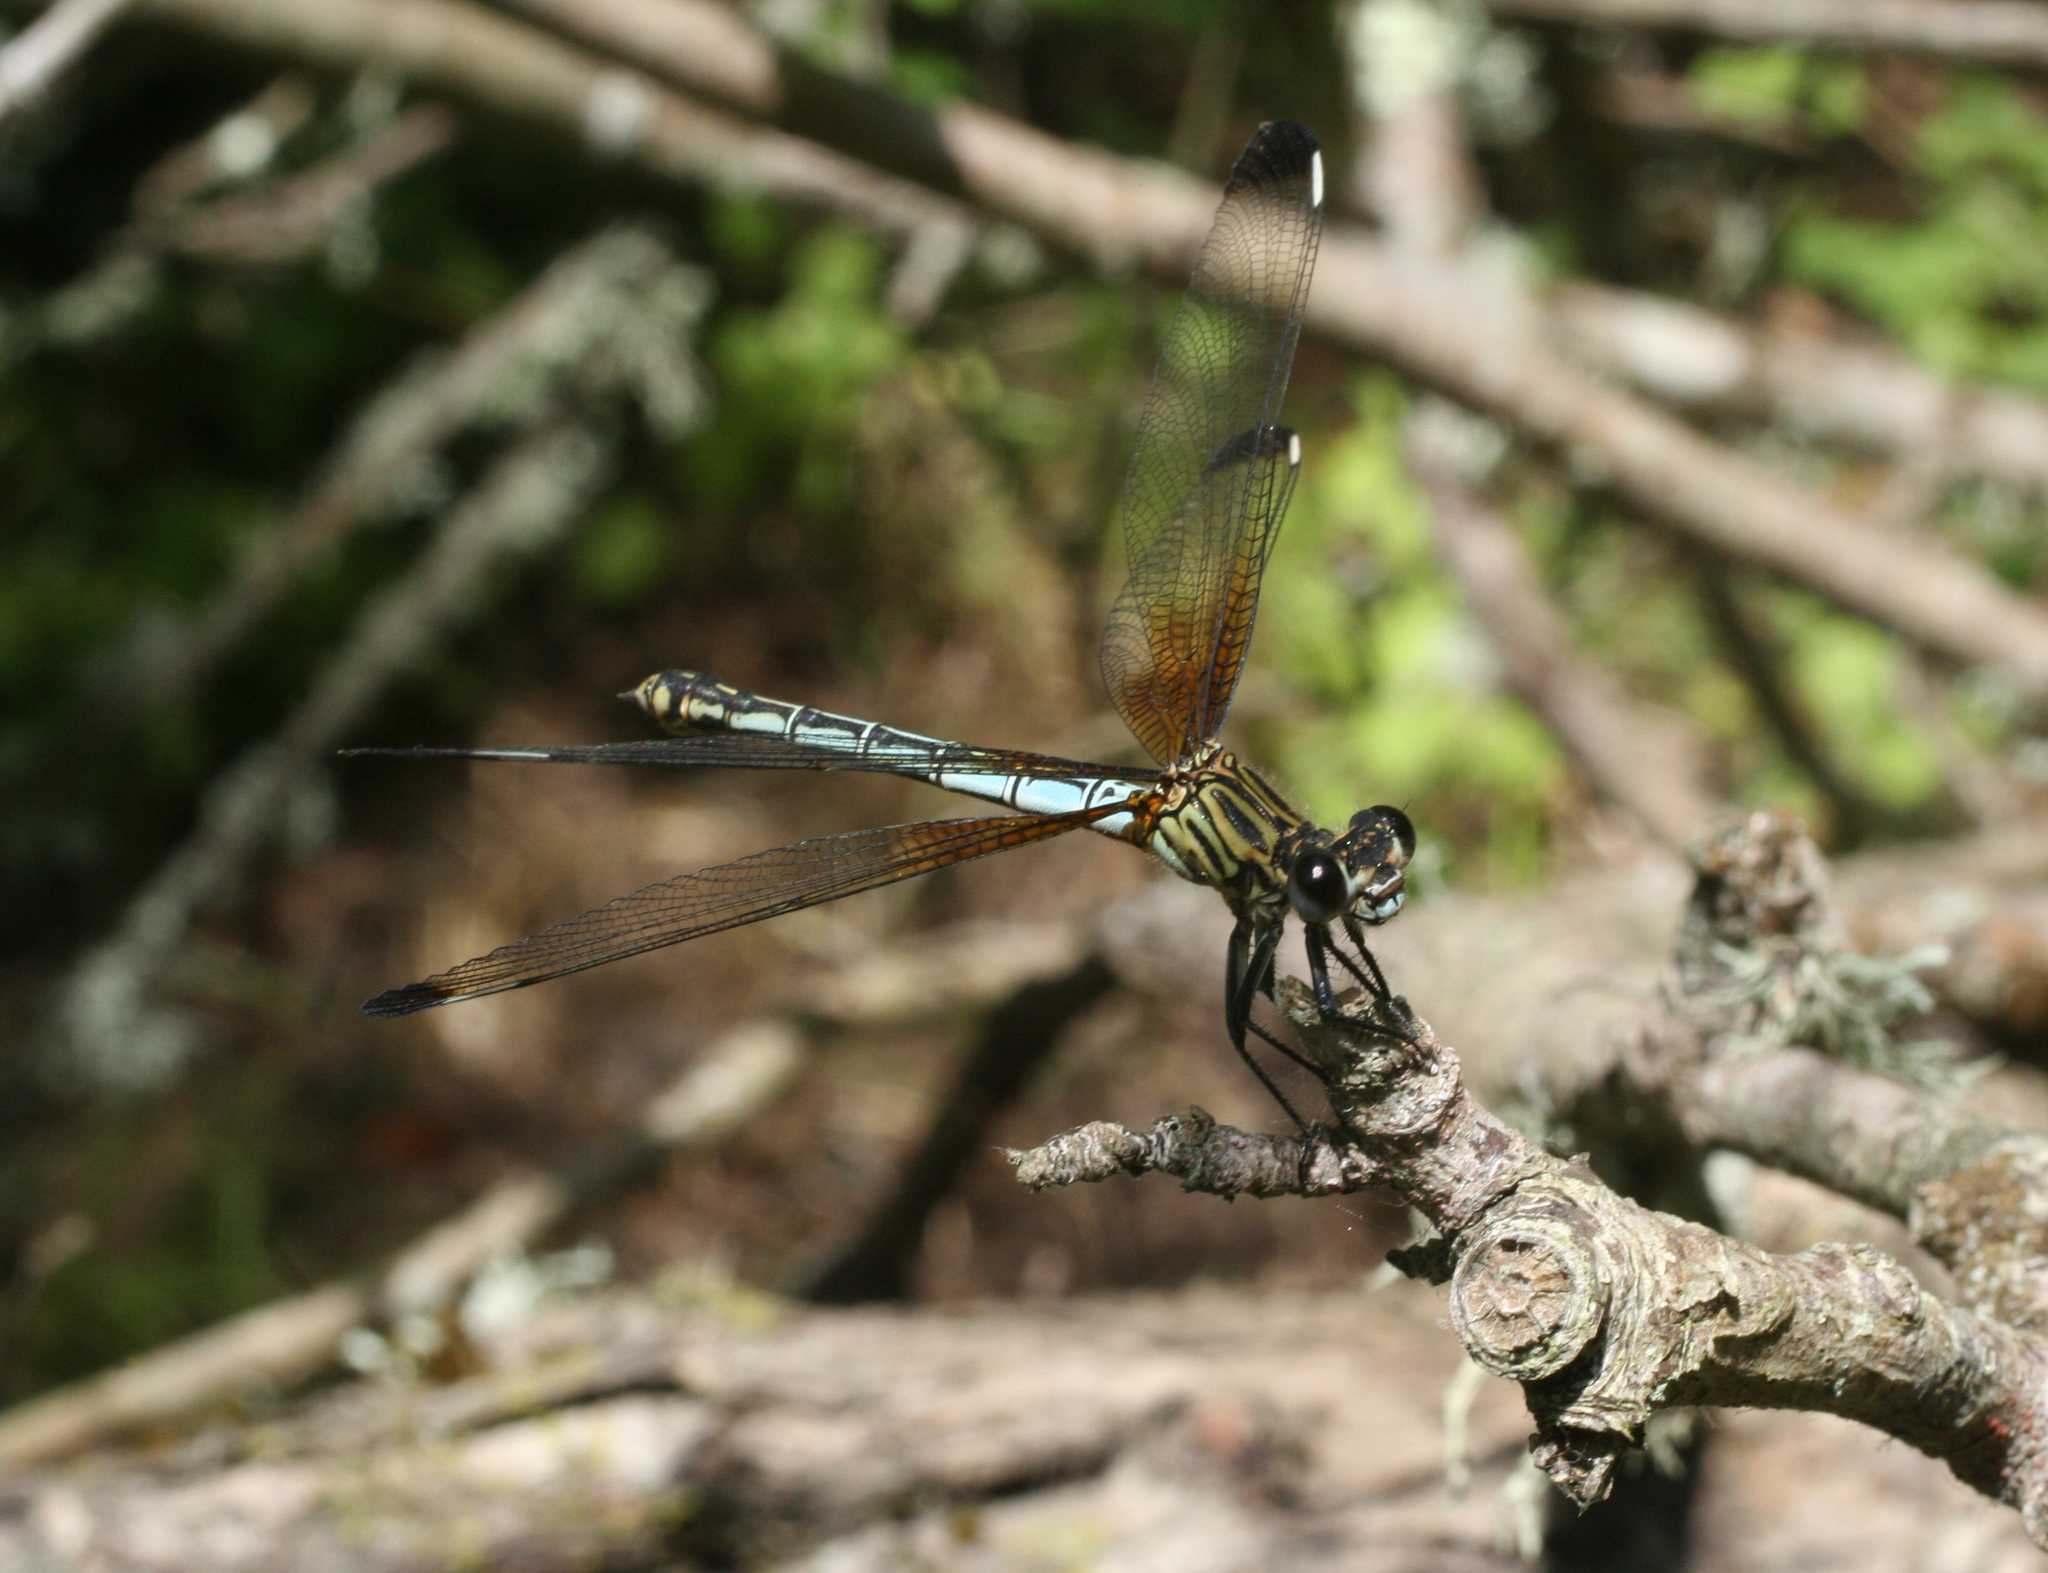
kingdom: Animalia
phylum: Arthropoda
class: Insecta
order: Odonata
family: Euphaeidae
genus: Epallage
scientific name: Epallage fatime
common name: Odalisque
